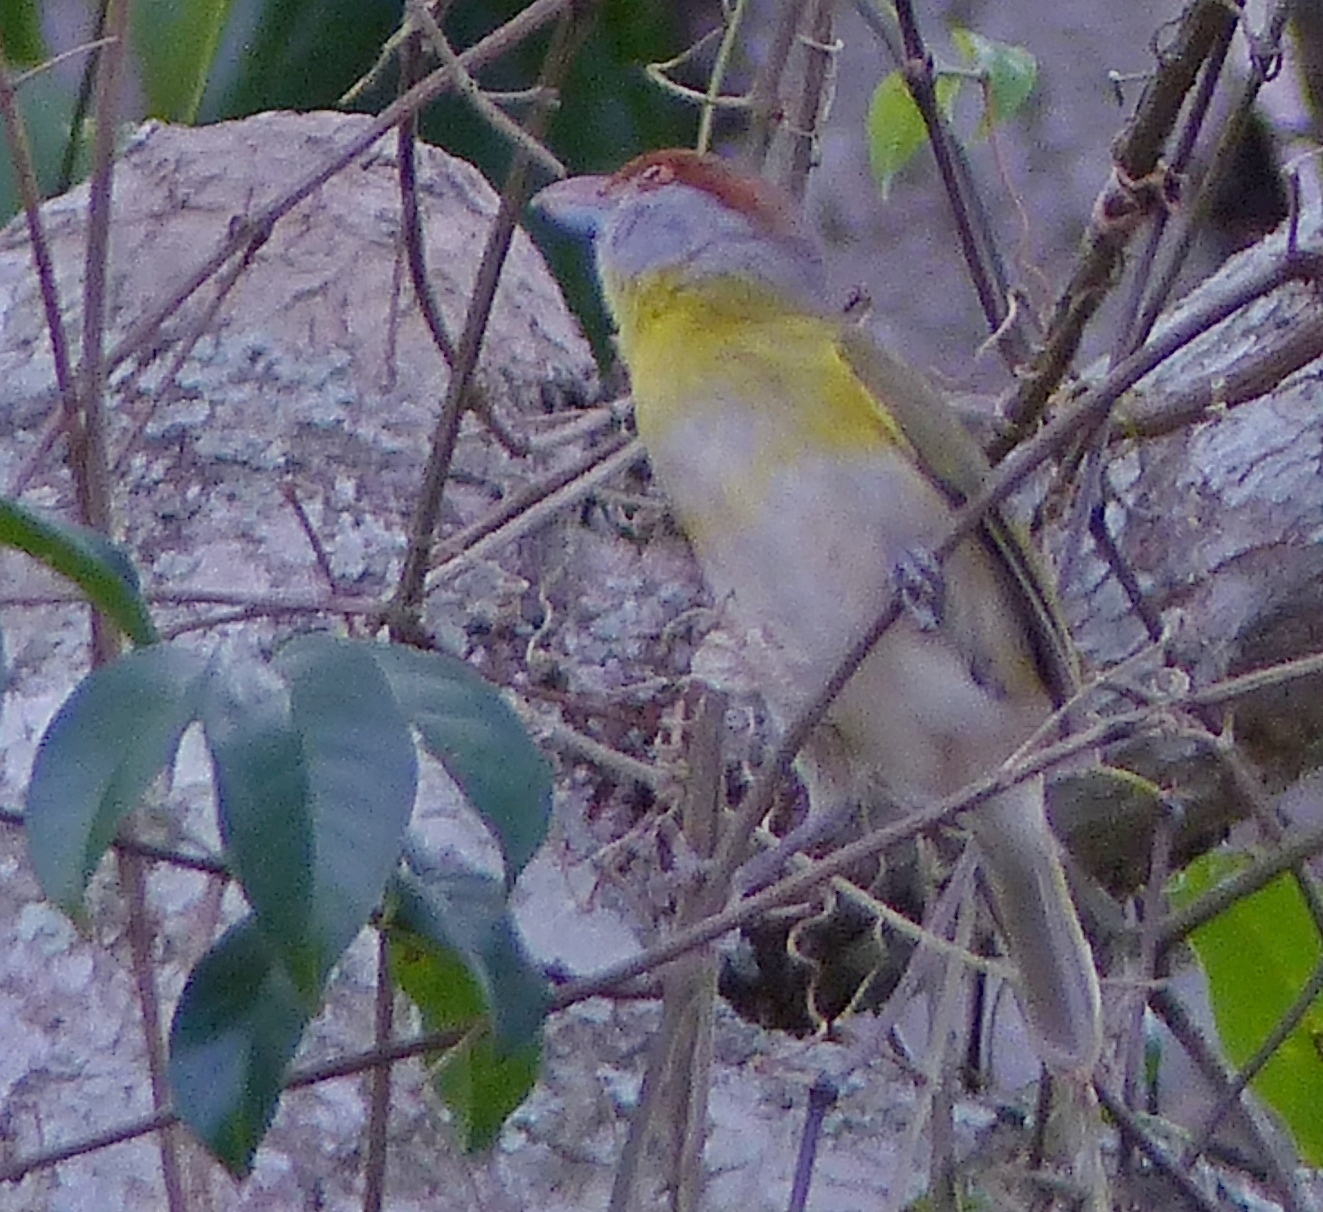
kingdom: Animalia
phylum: Chordata
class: Aves
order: Passeriformes
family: Vireonidae
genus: Cyclarhis
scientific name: Cyclarhis gujanensis
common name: Rufous-browed peppershrike
